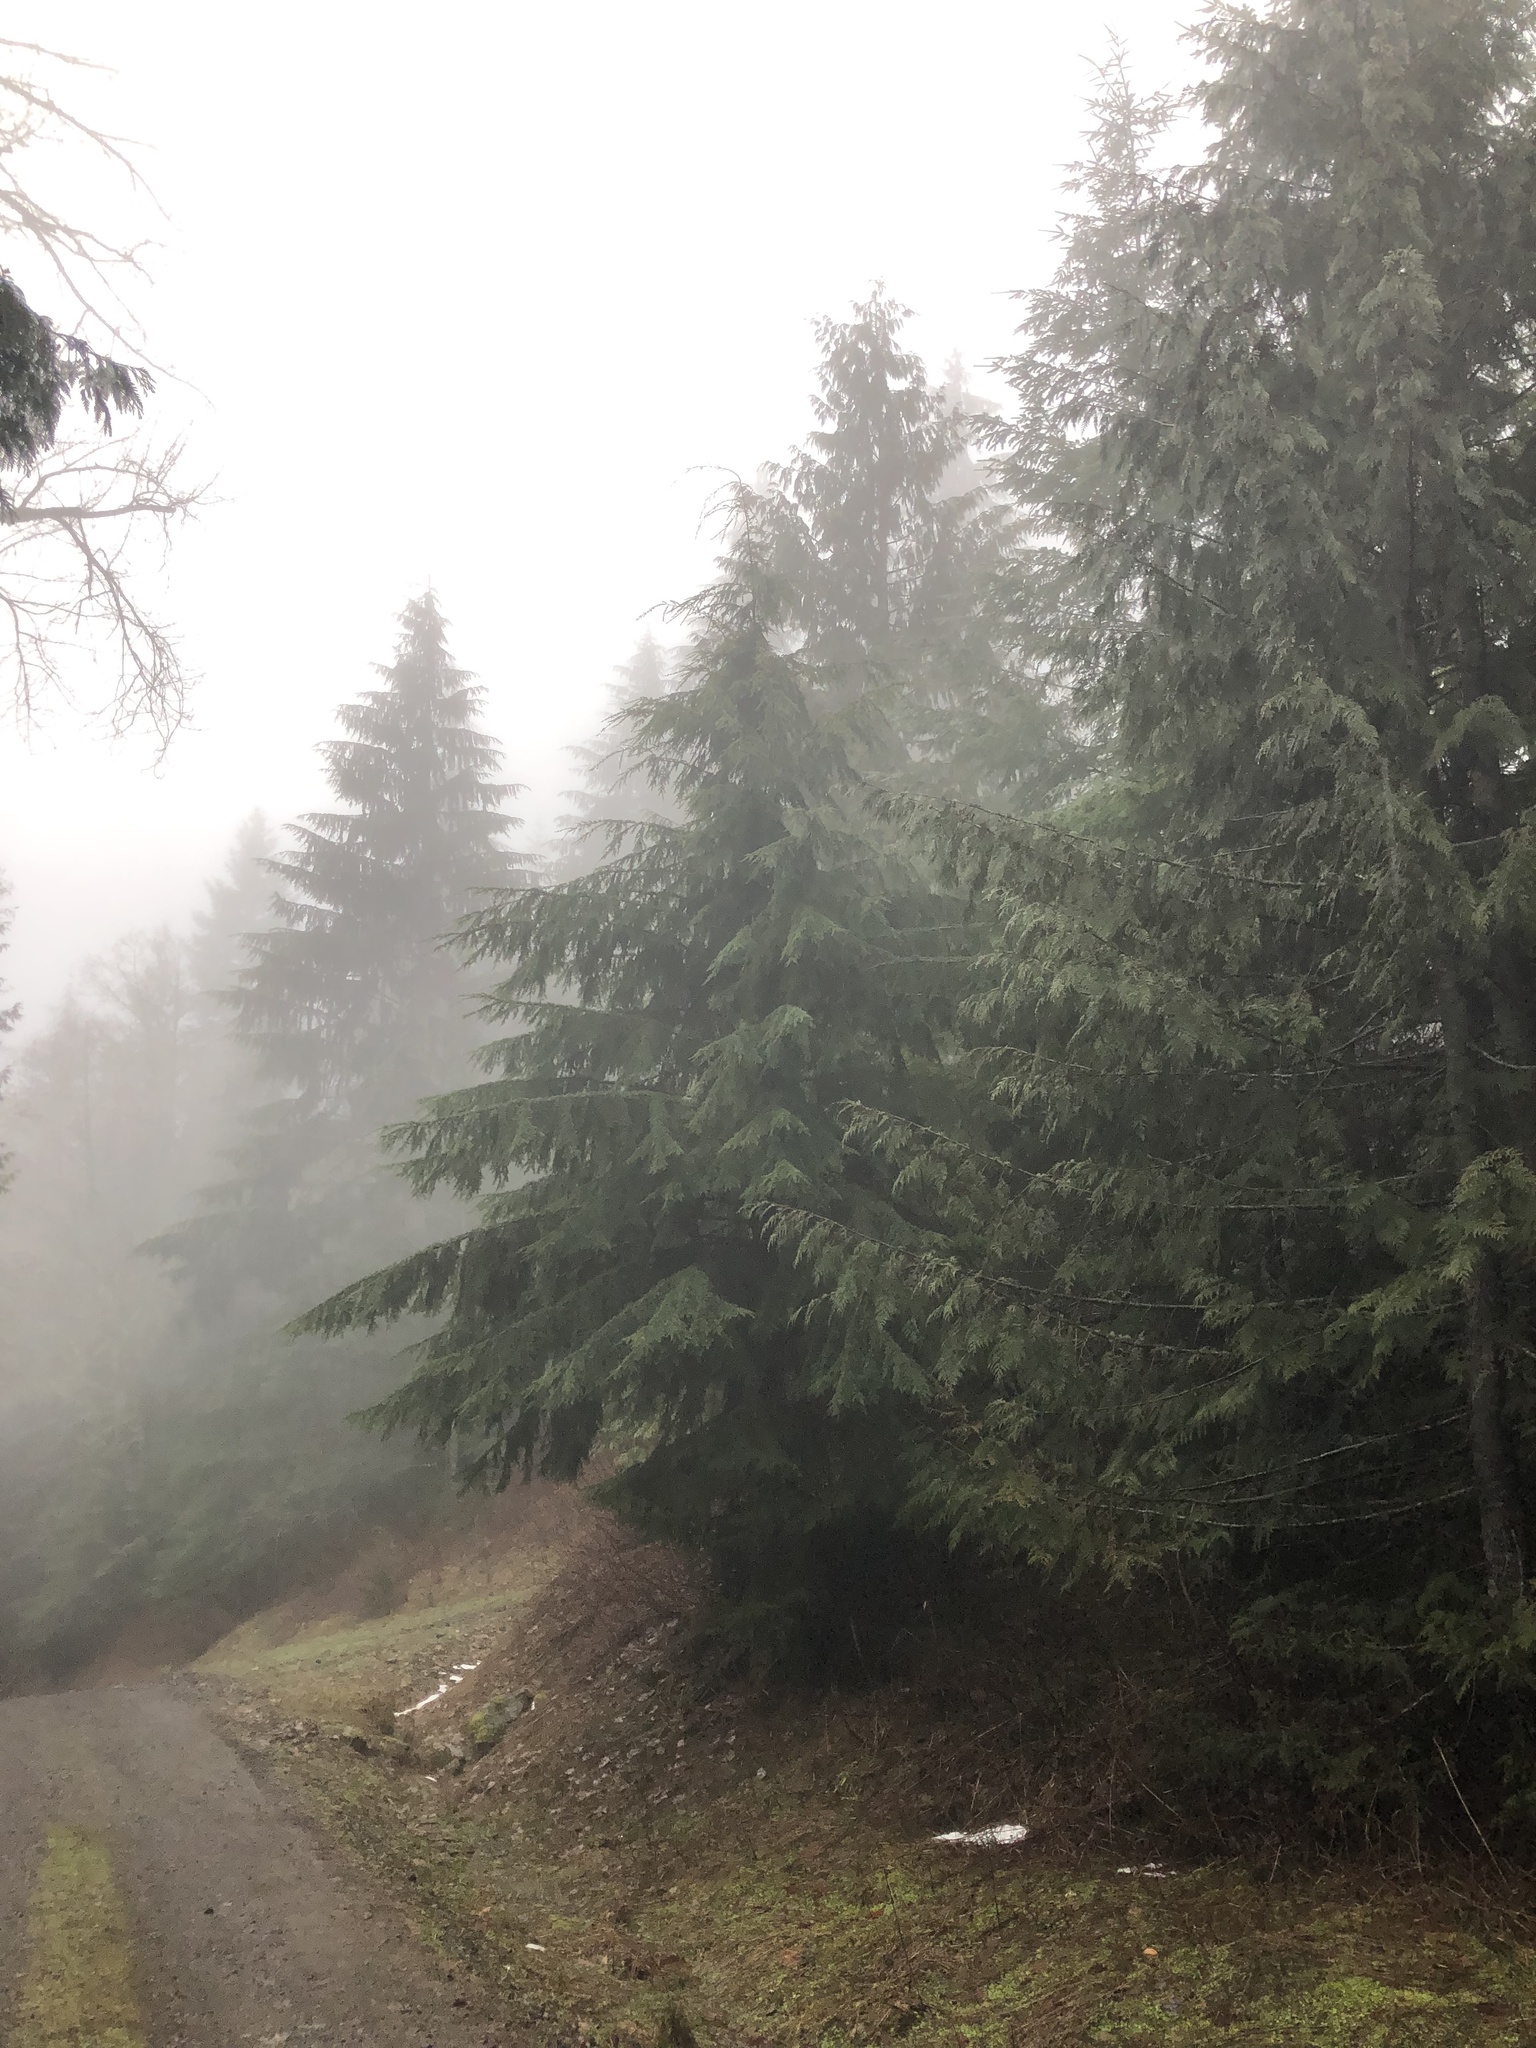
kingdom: Plantae
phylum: Tracheophyta
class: Pinopsida
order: Pinales
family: Pinaceae
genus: Tsuga
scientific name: Tsuga heterophylla
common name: Western hemlock
